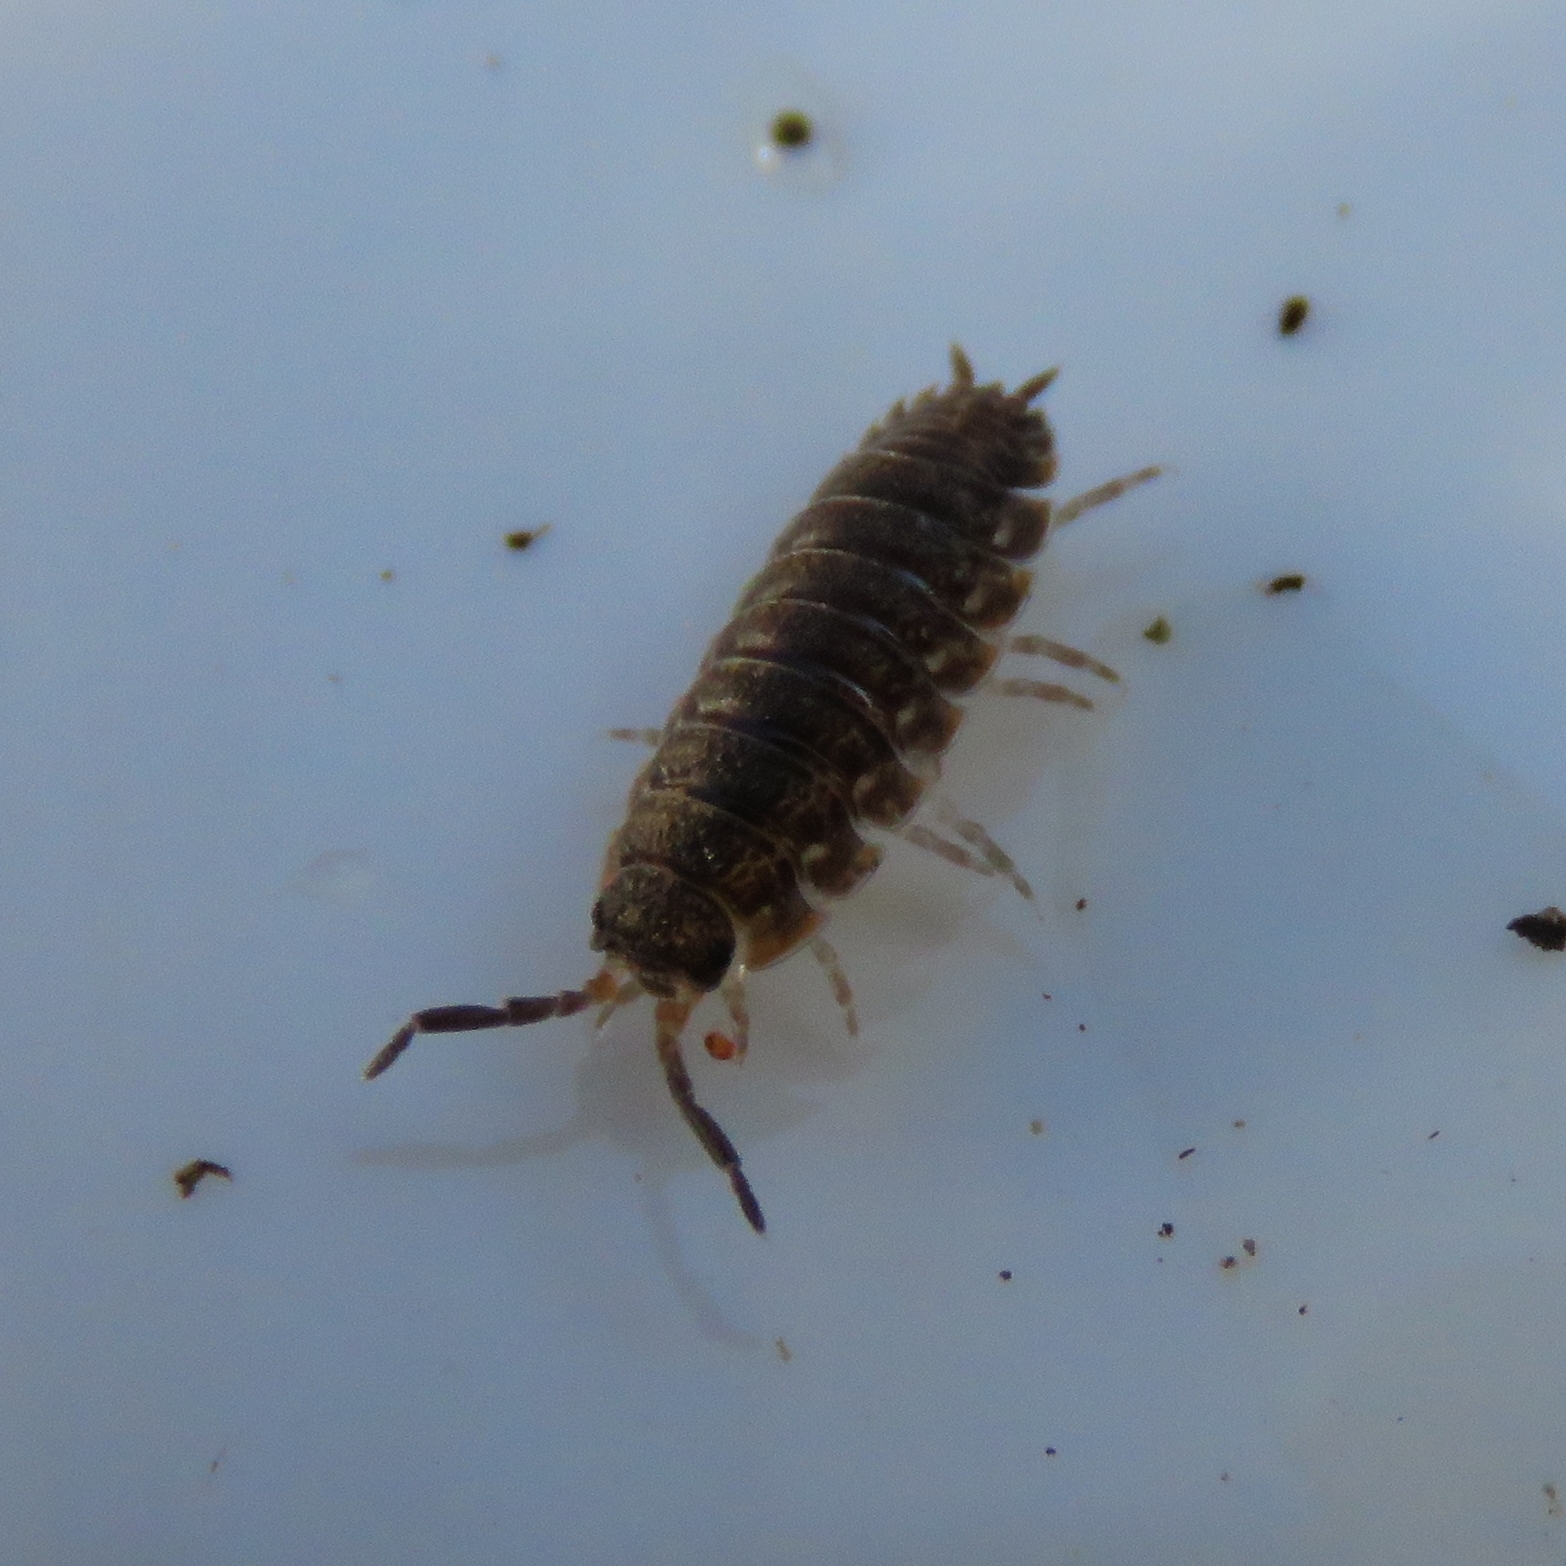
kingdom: Animalia
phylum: Arthropoda
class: Malacostraca
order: Isopoda
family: Porcellionidae
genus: Porcellio
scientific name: Porcellio scaber
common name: Common rough woodlouse
